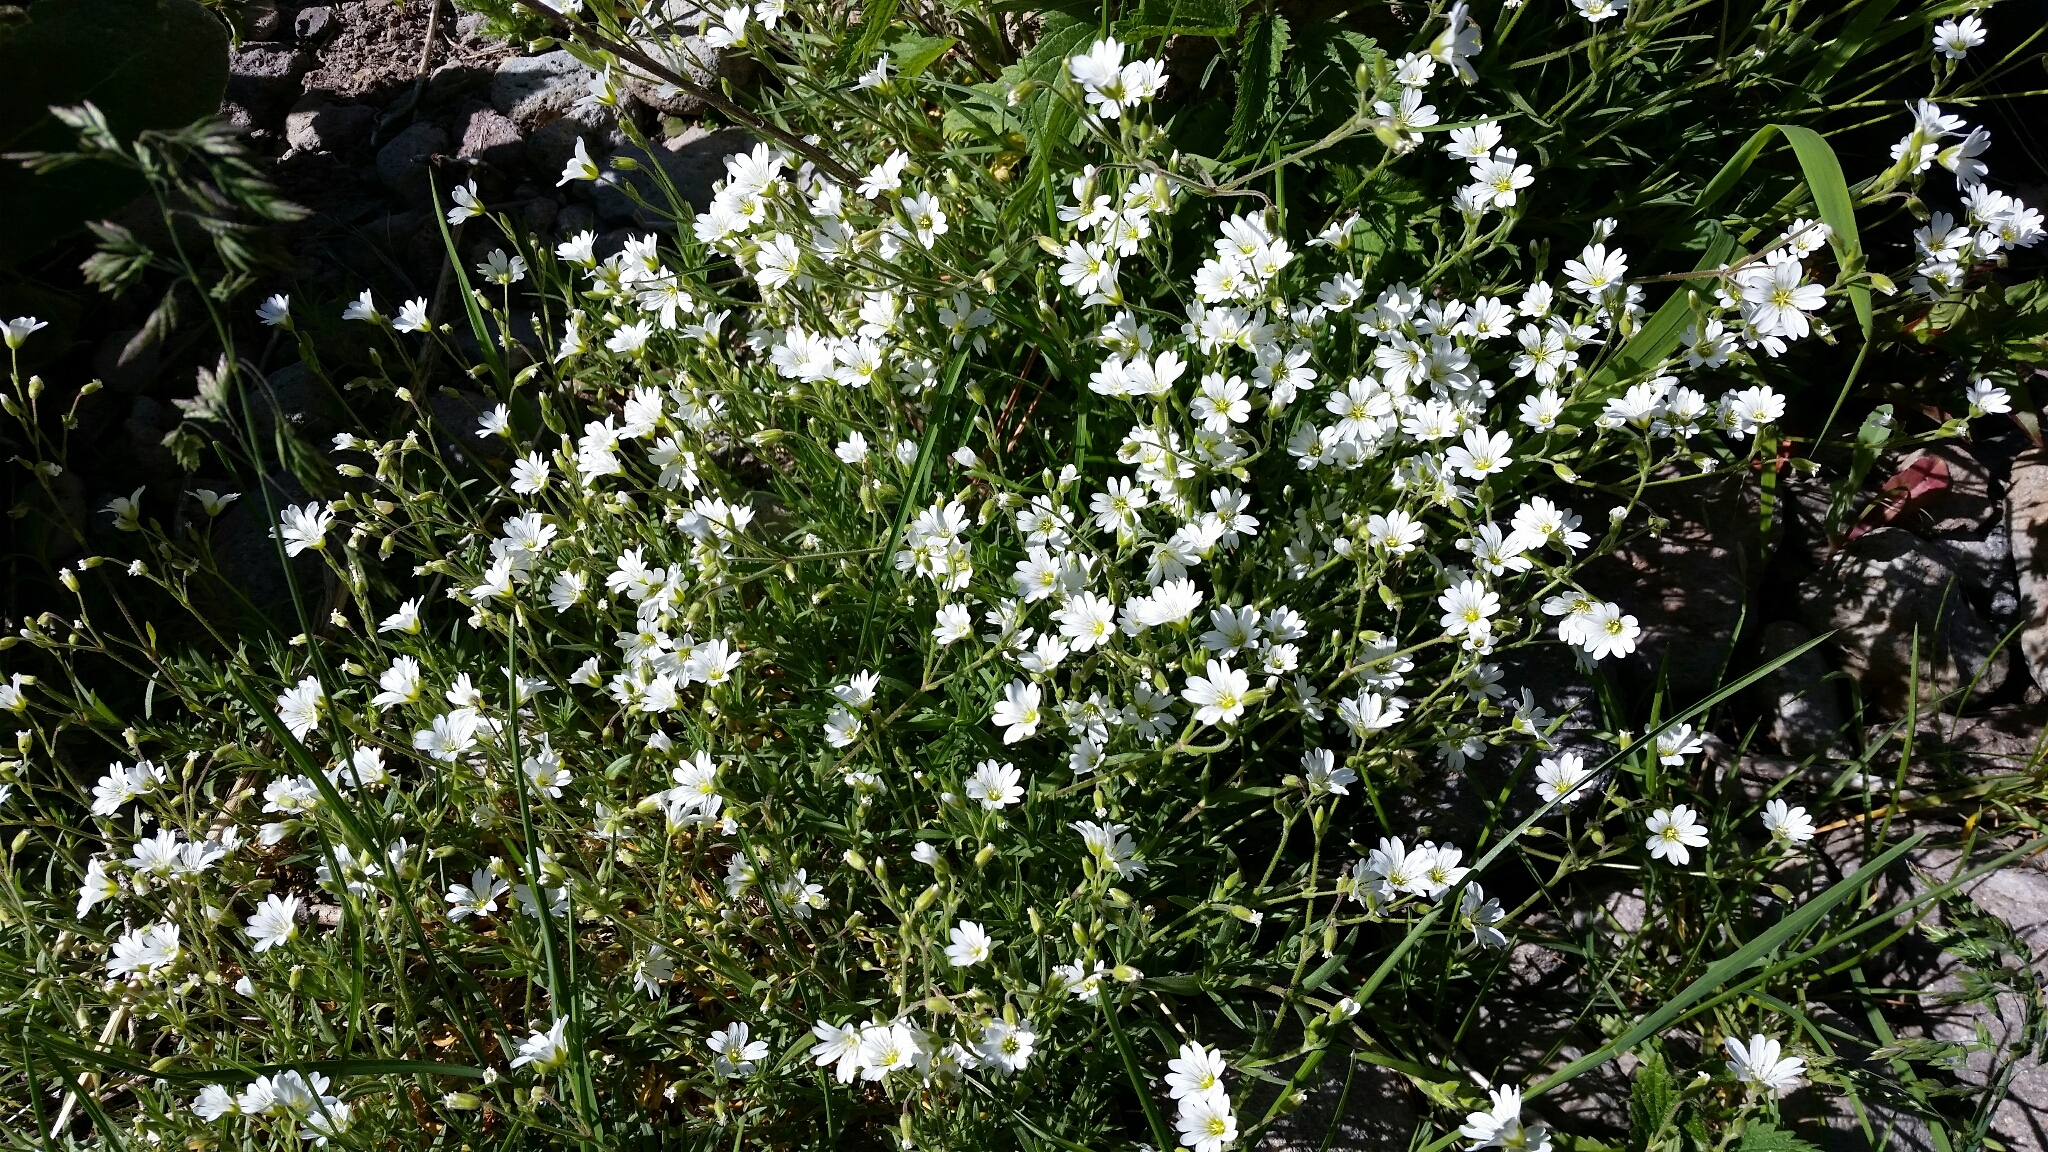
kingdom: Plantae
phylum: Tracheophyta
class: Magnoliopsida
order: Caryophyllales
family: Caryophyllaceae
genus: Cerastium
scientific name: Cerastium arvense
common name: Field mouse-ear
